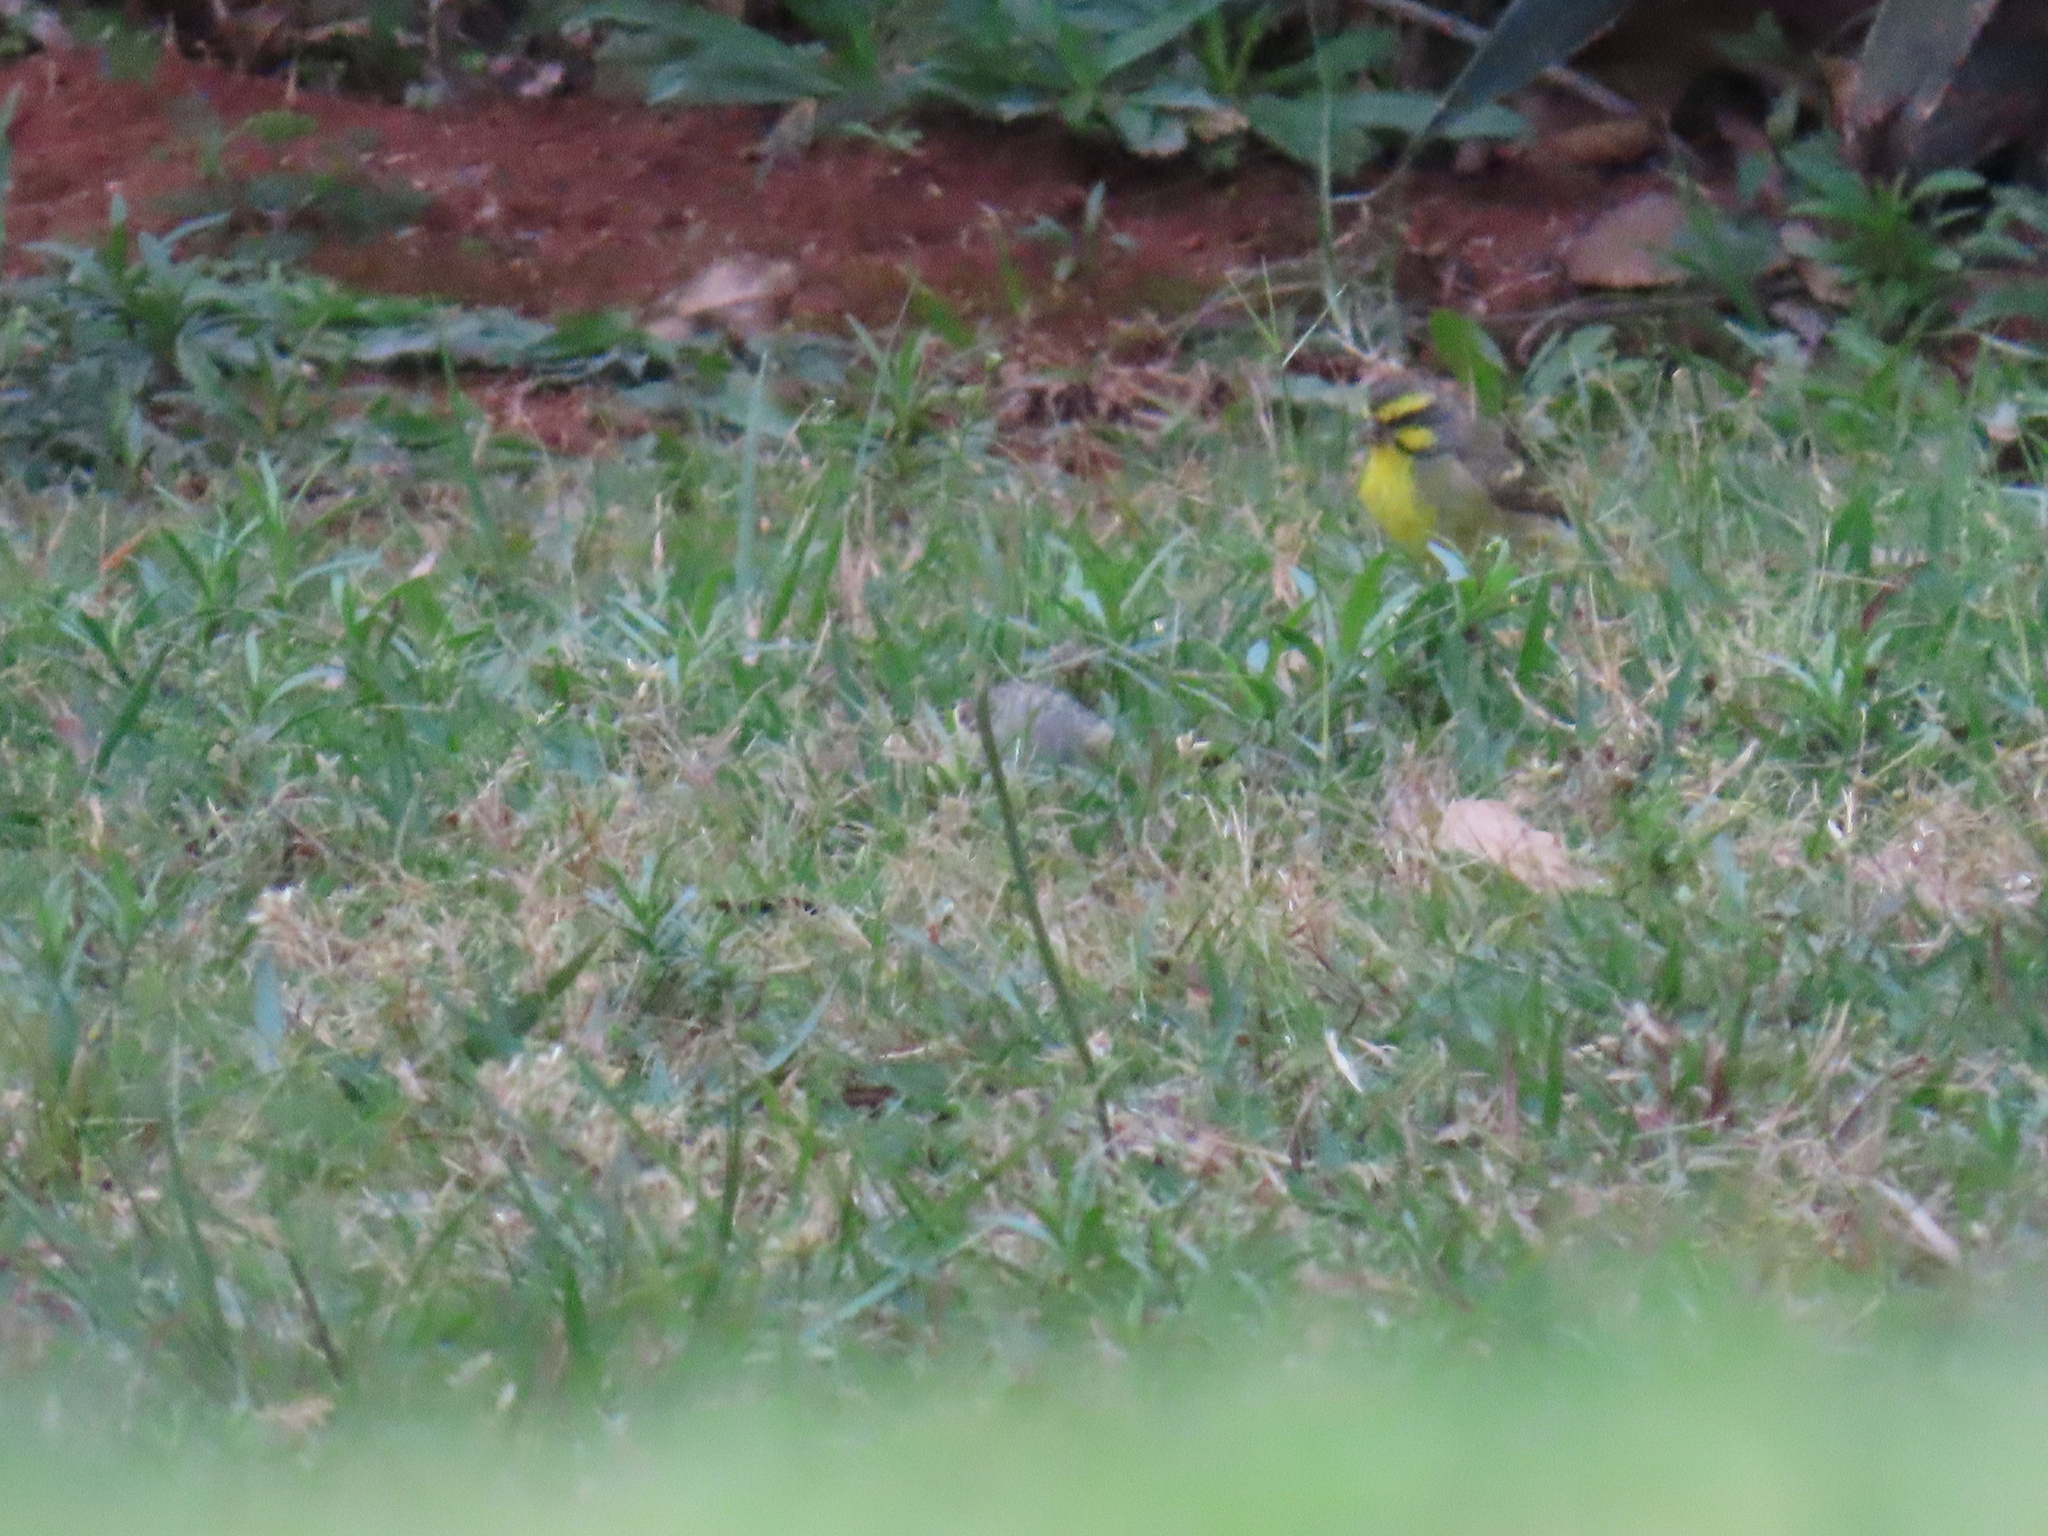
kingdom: Animalia
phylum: Chordata
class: Aves
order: Passeriformes
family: Fringillidae
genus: Crithagra
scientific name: Crithagra mozambica
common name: Yellow-fronted canary
